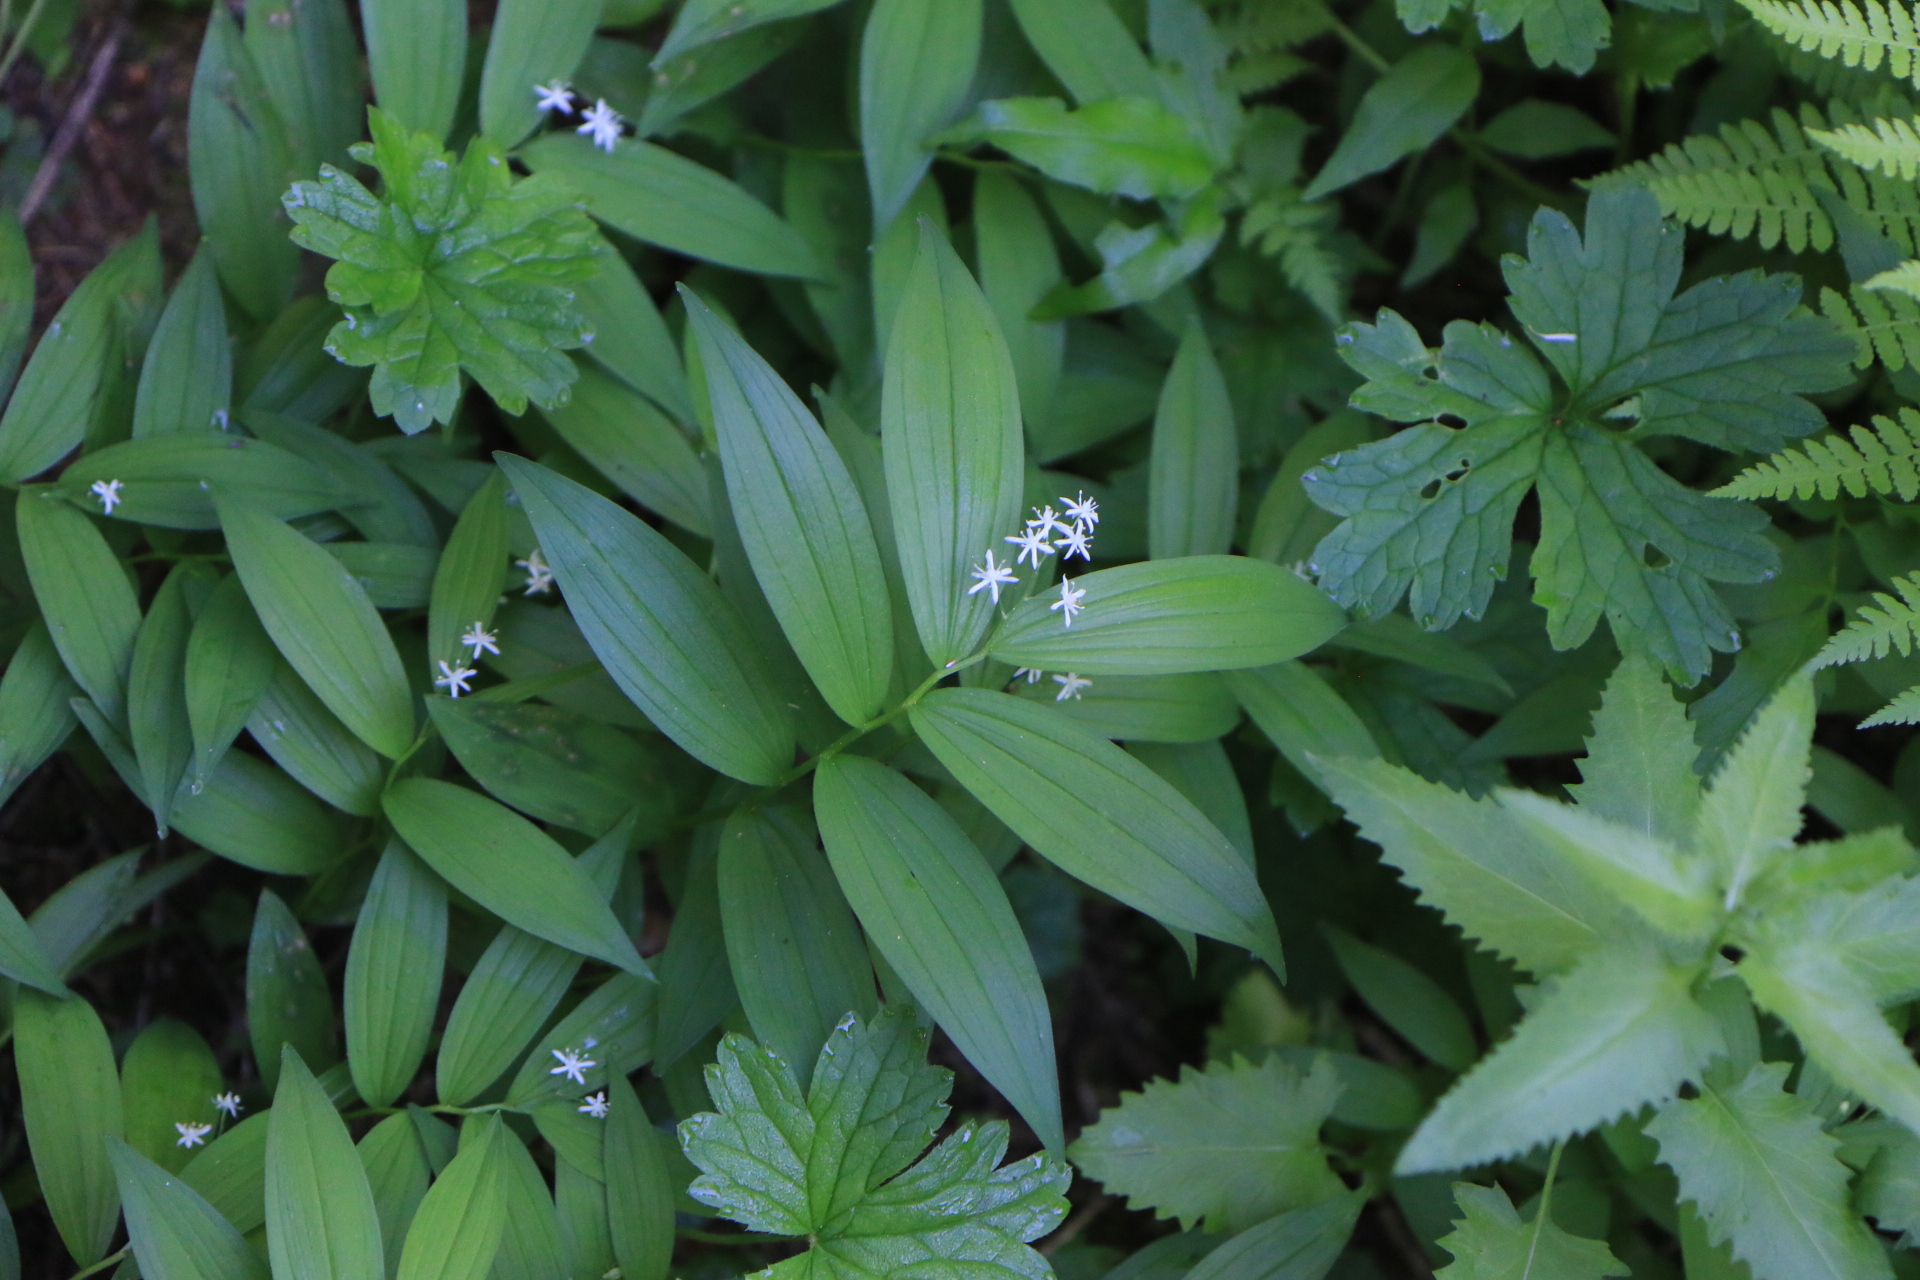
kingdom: Plantae
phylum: Tracheophyta
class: Liliopsida
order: Asparagales
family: Asparagaceae
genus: Maianthemum
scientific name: Maianthemum stellatum
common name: Little false solomon's seal
